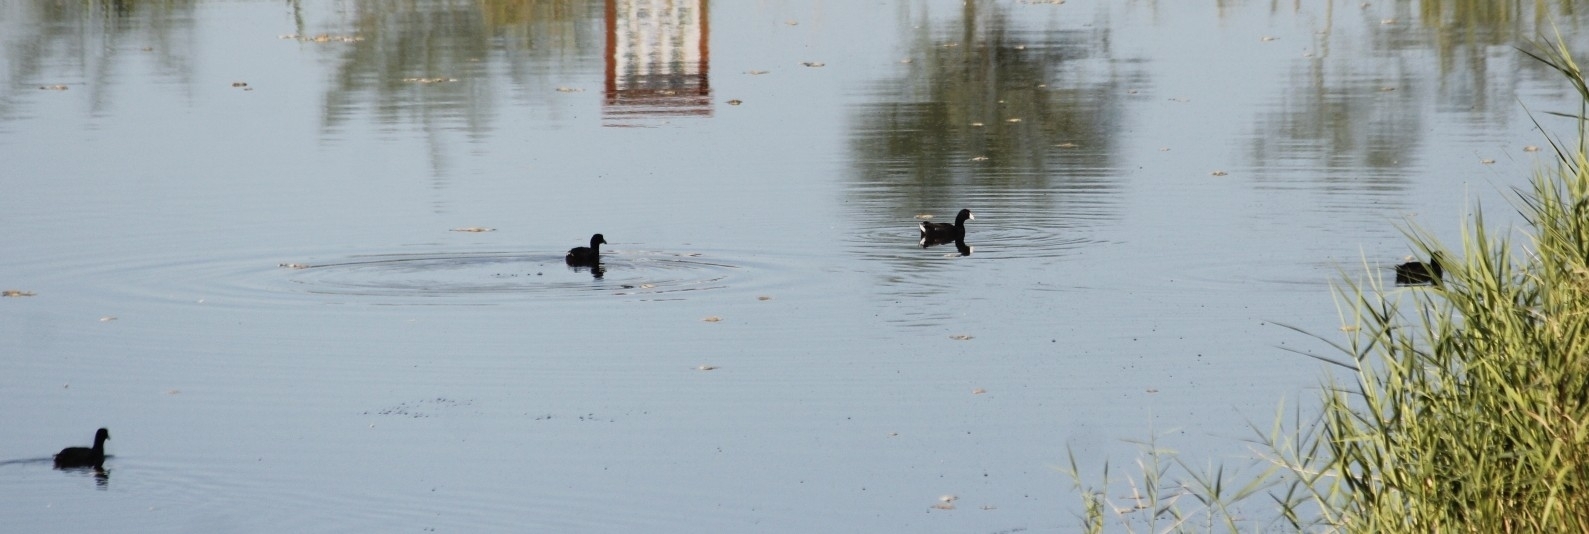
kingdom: Animalia
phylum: Chordata
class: Aves
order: Gruiformes
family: Rallidae
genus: Fulica
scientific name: Fulica americana
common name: American coot
